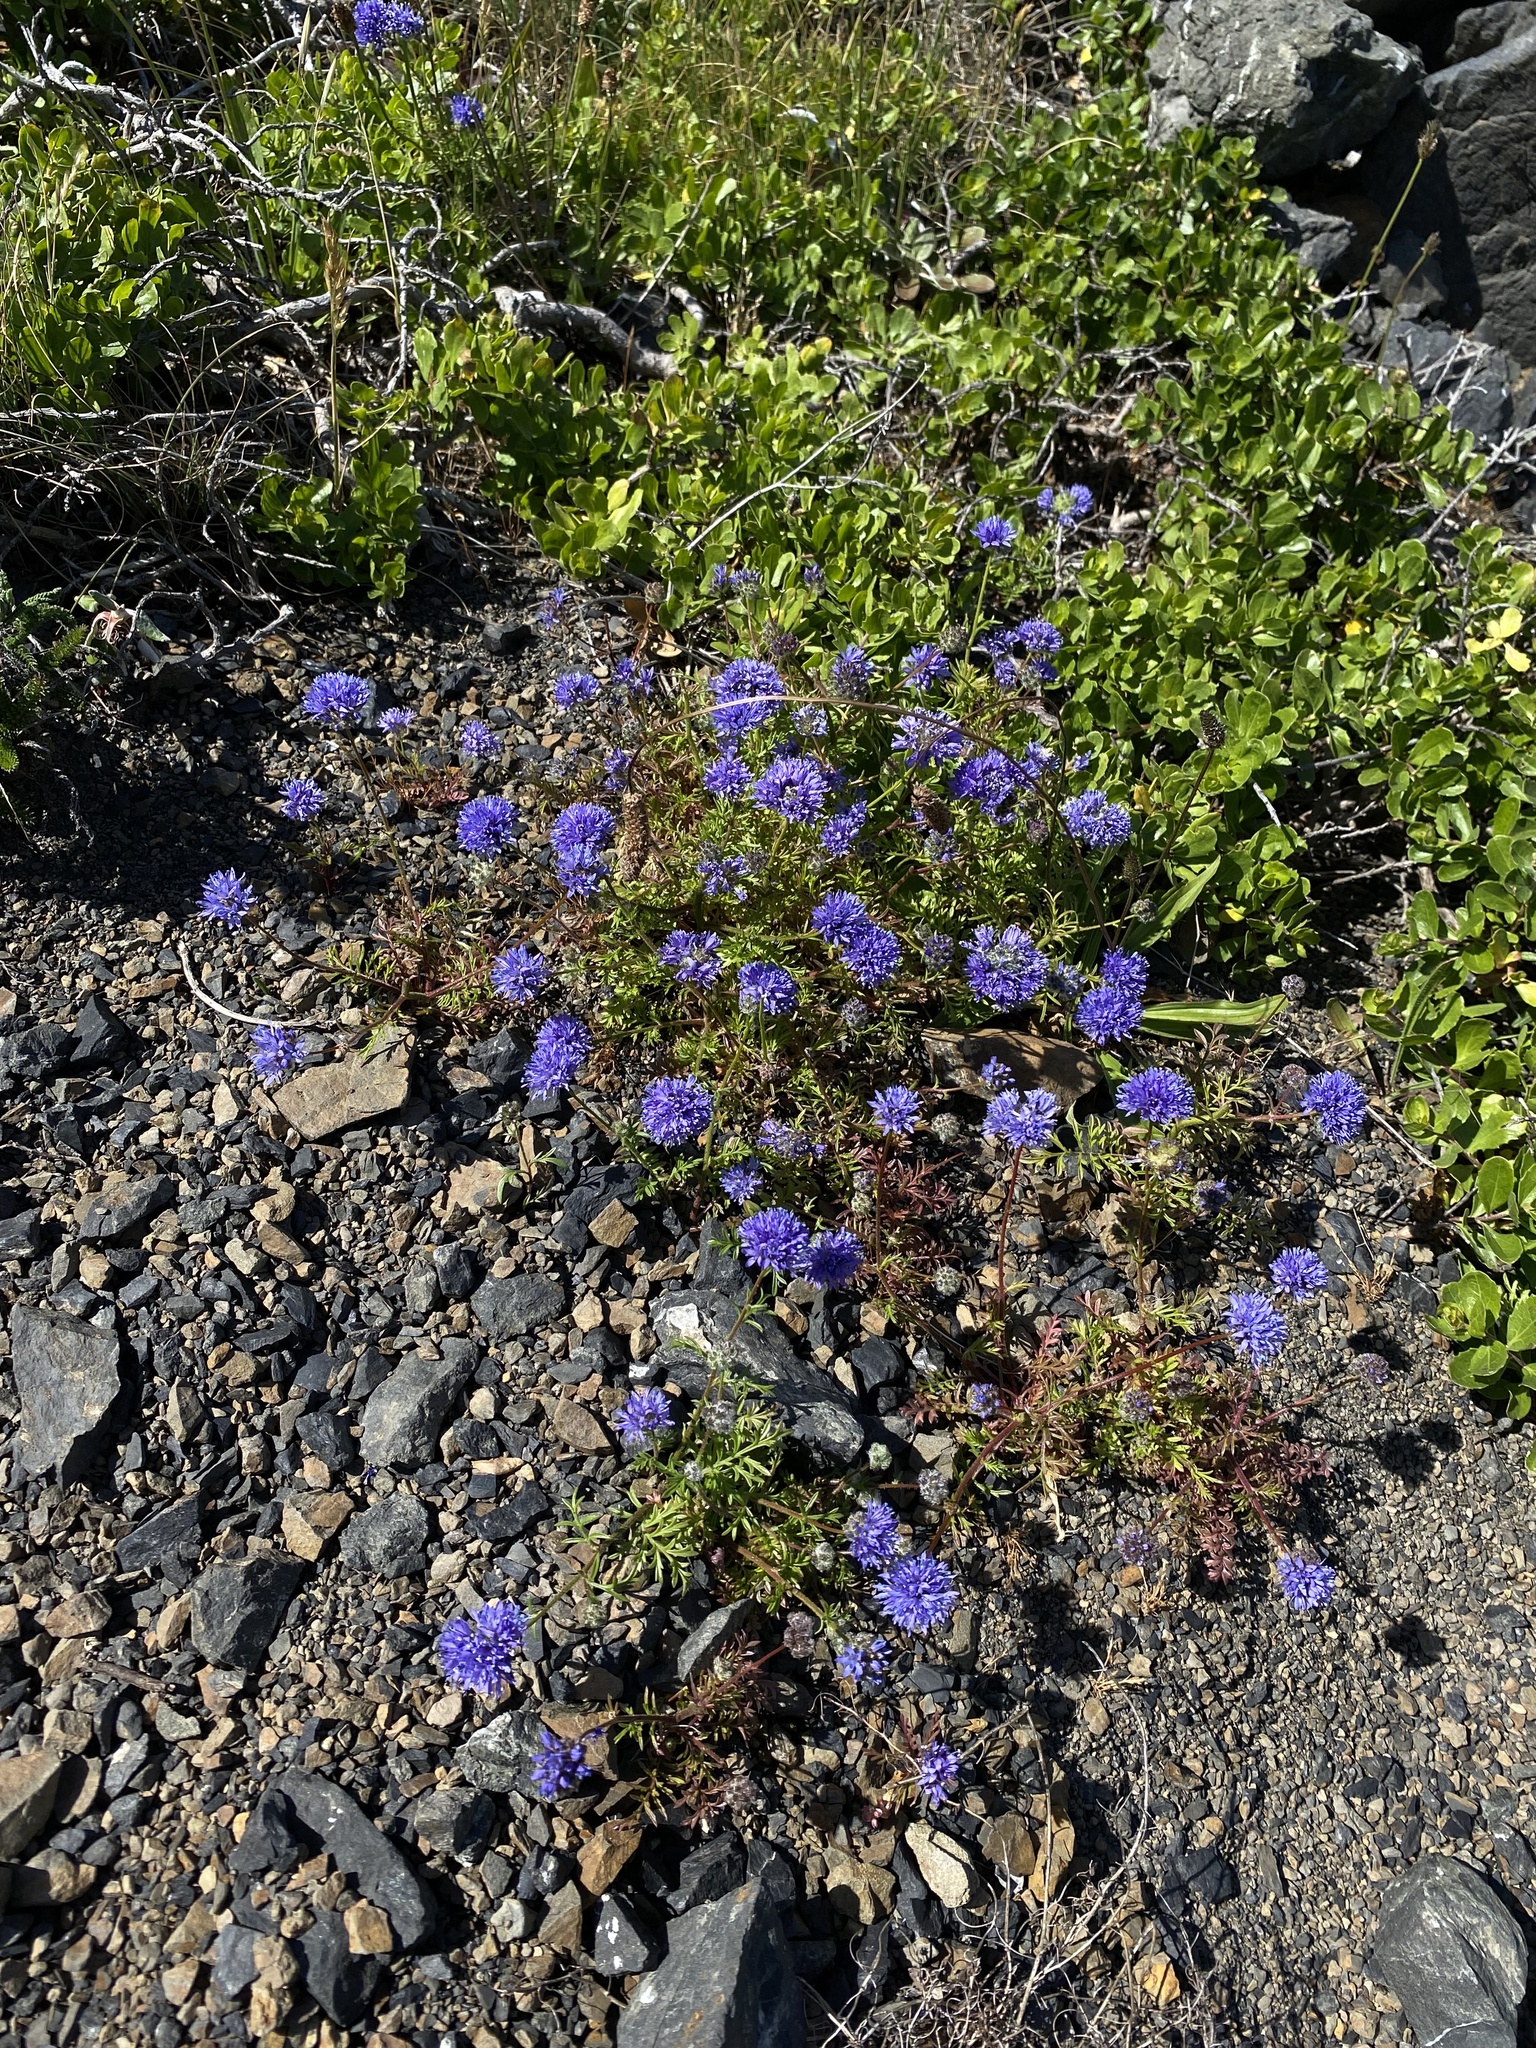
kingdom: Plantae
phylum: Tracheophyta
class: Magnoliopsida
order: Ericales
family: Polemoniaceae
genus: Gilia
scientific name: Gilia capitata
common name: Bluehead gilia
